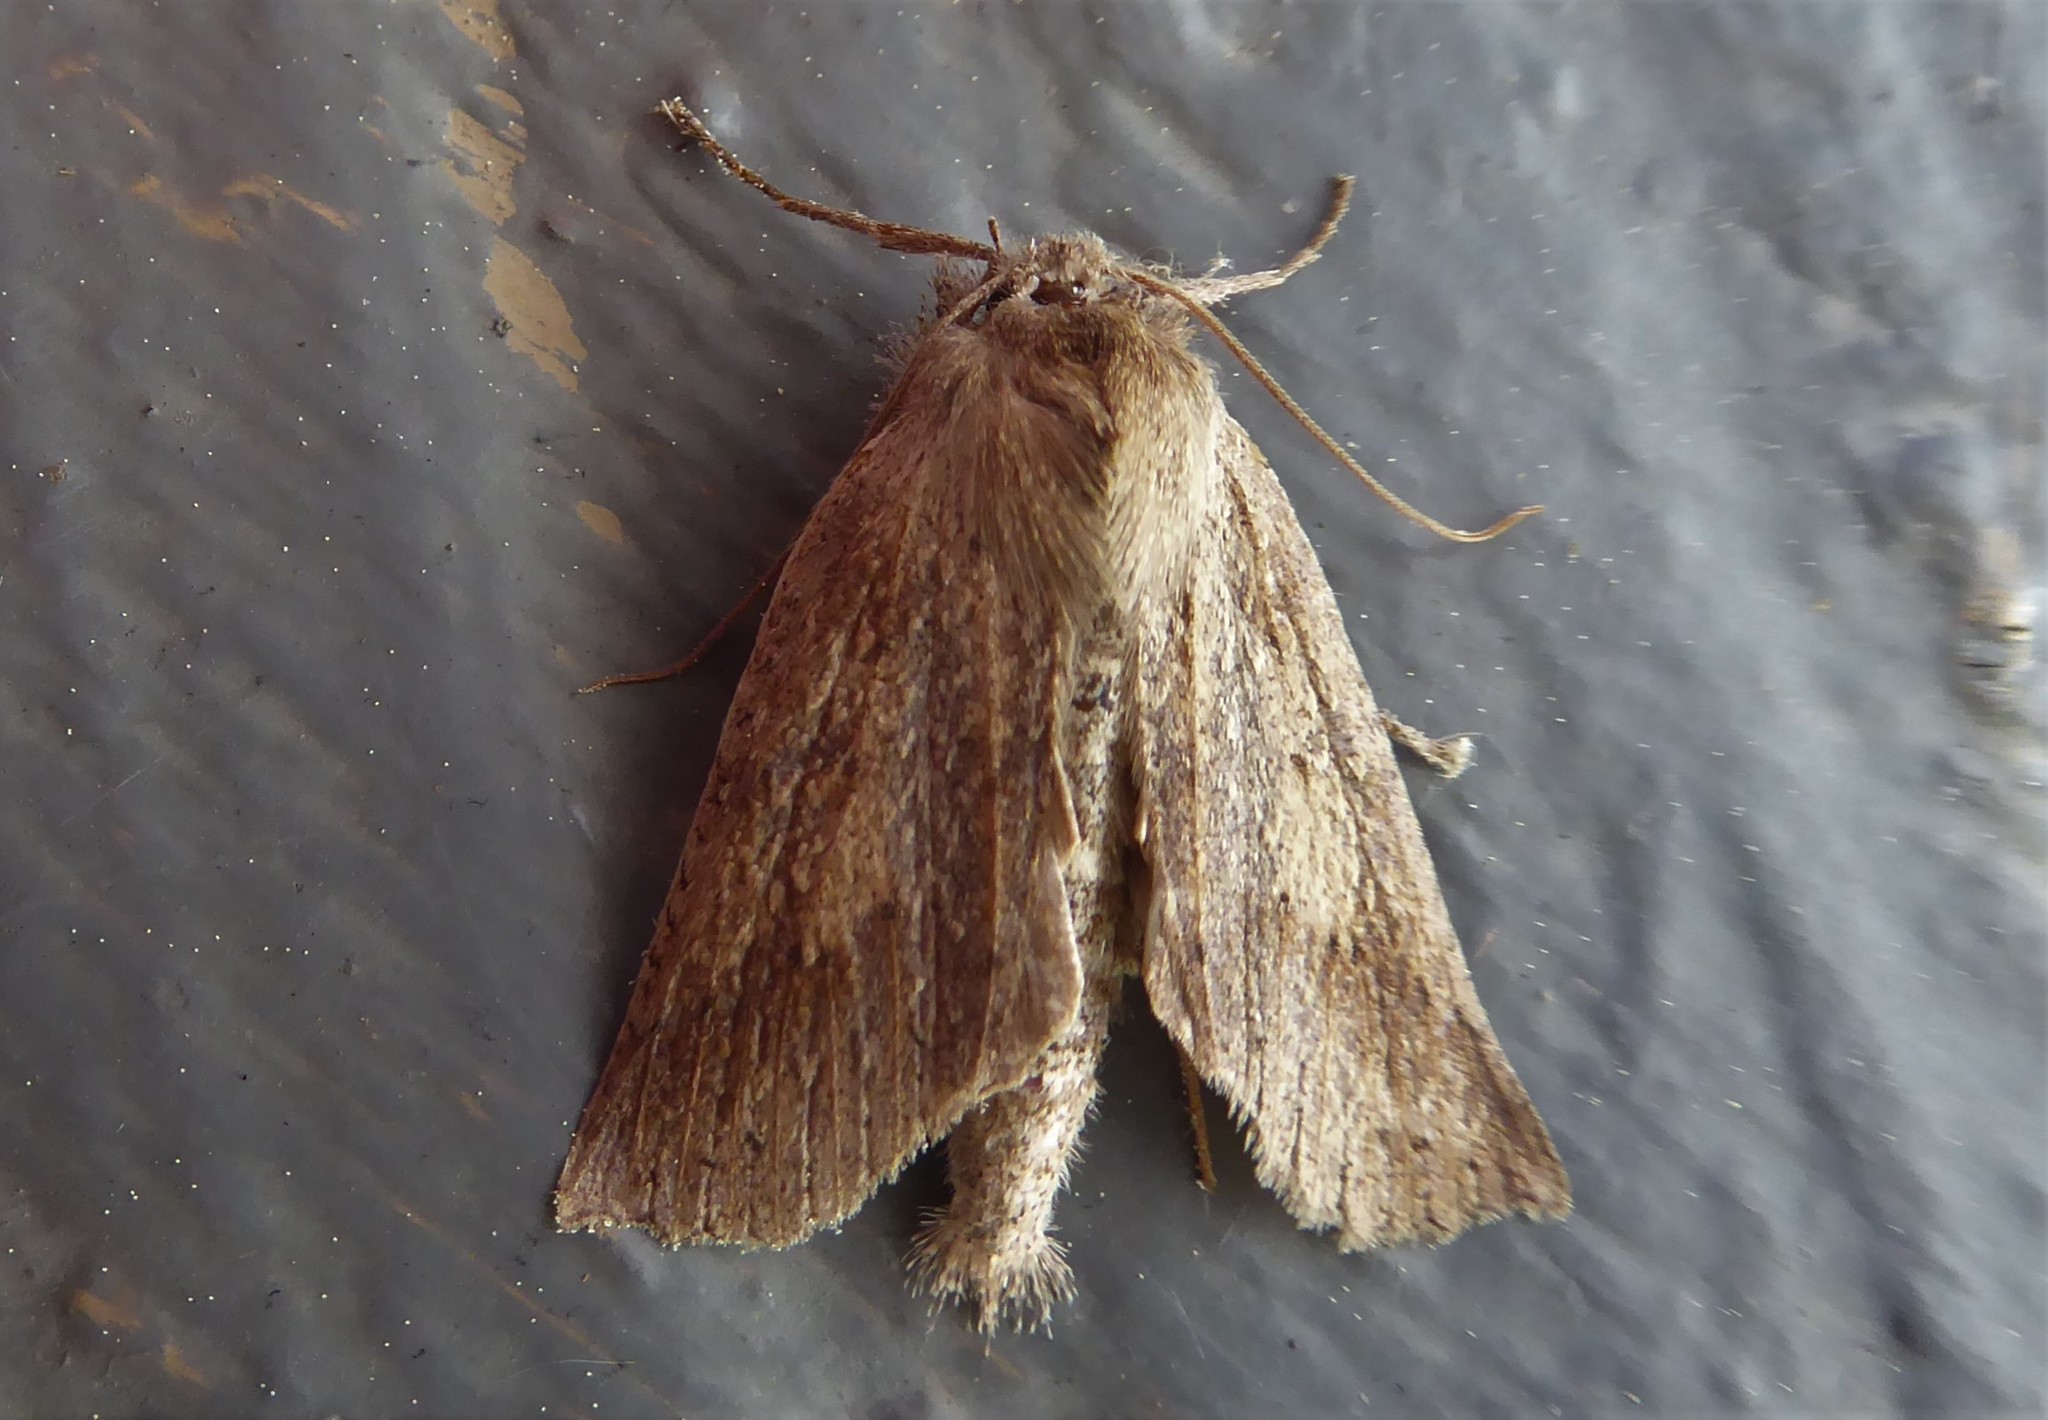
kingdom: Animalia
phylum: Arthropoda
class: Insecta
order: Lepidoptera
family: Geometridae
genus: Declana
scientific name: Declana leptomera
